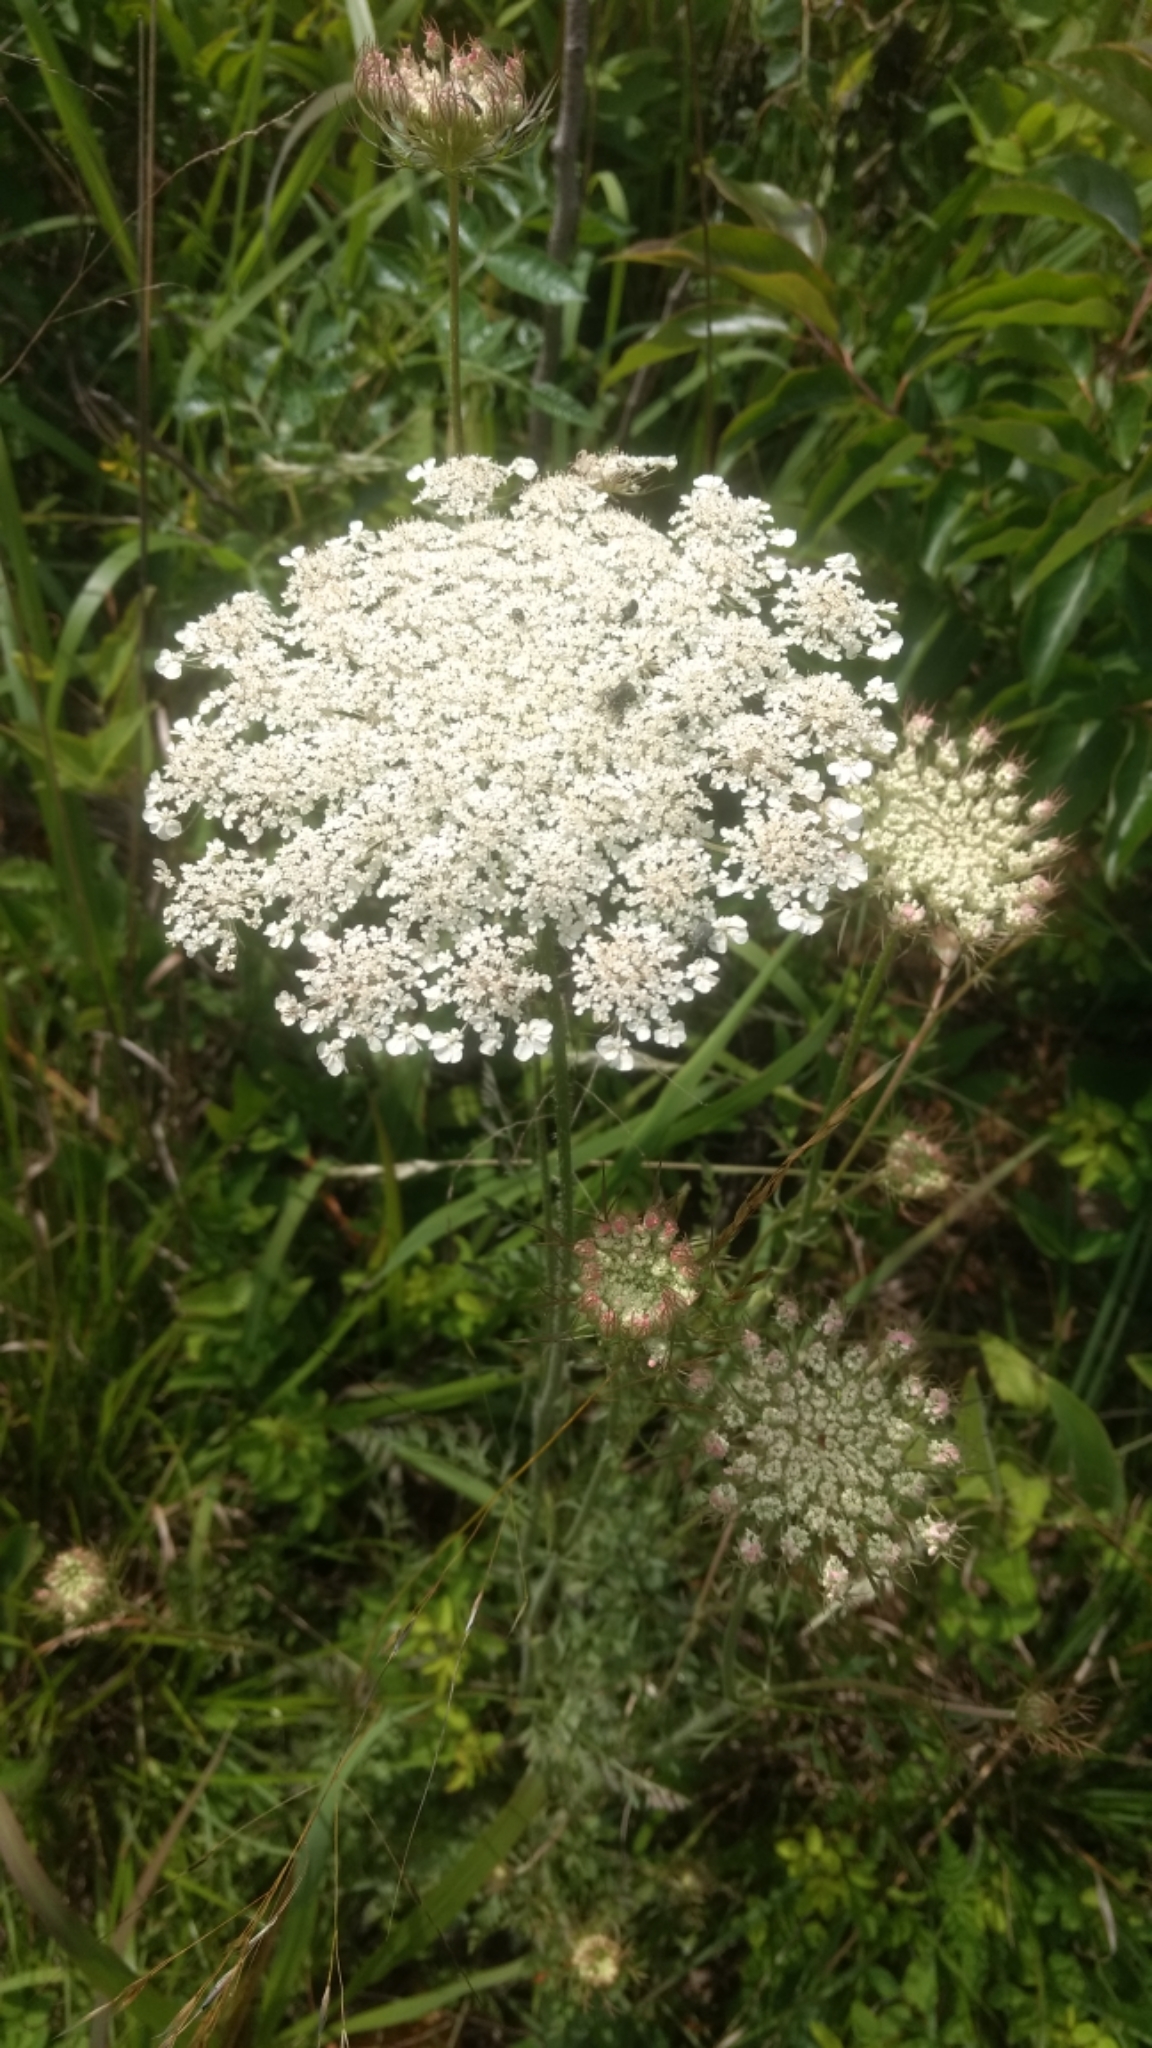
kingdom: Plantae
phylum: Tracheophyta
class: Magnoliopsida
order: Apiales
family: Apiaceae
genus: Daucus
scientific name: Daucus carota
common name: Wild carrot
